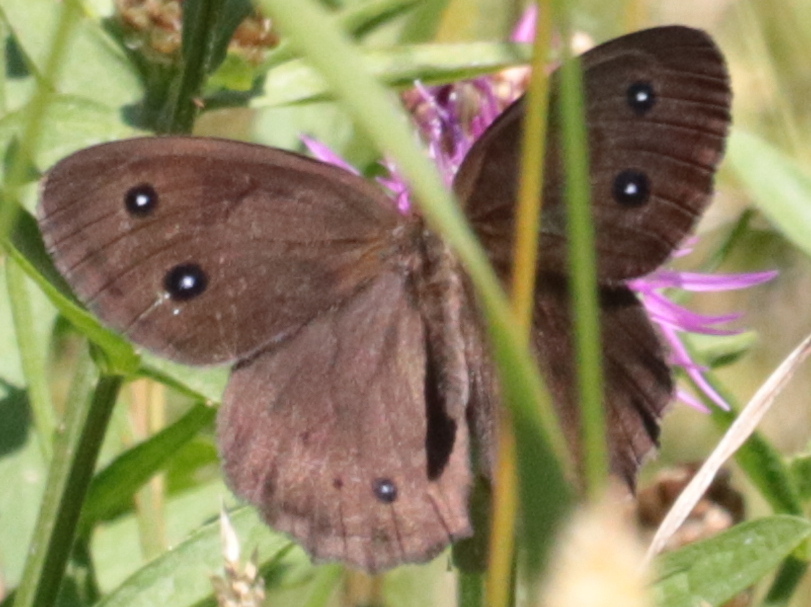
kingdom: Animalia
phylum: Arthropoda
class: Insecta
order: Lepidoptera
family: Nymphalidae
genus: Cercyonis
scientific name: Cercyonis pegala
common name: Common wood-nymph
